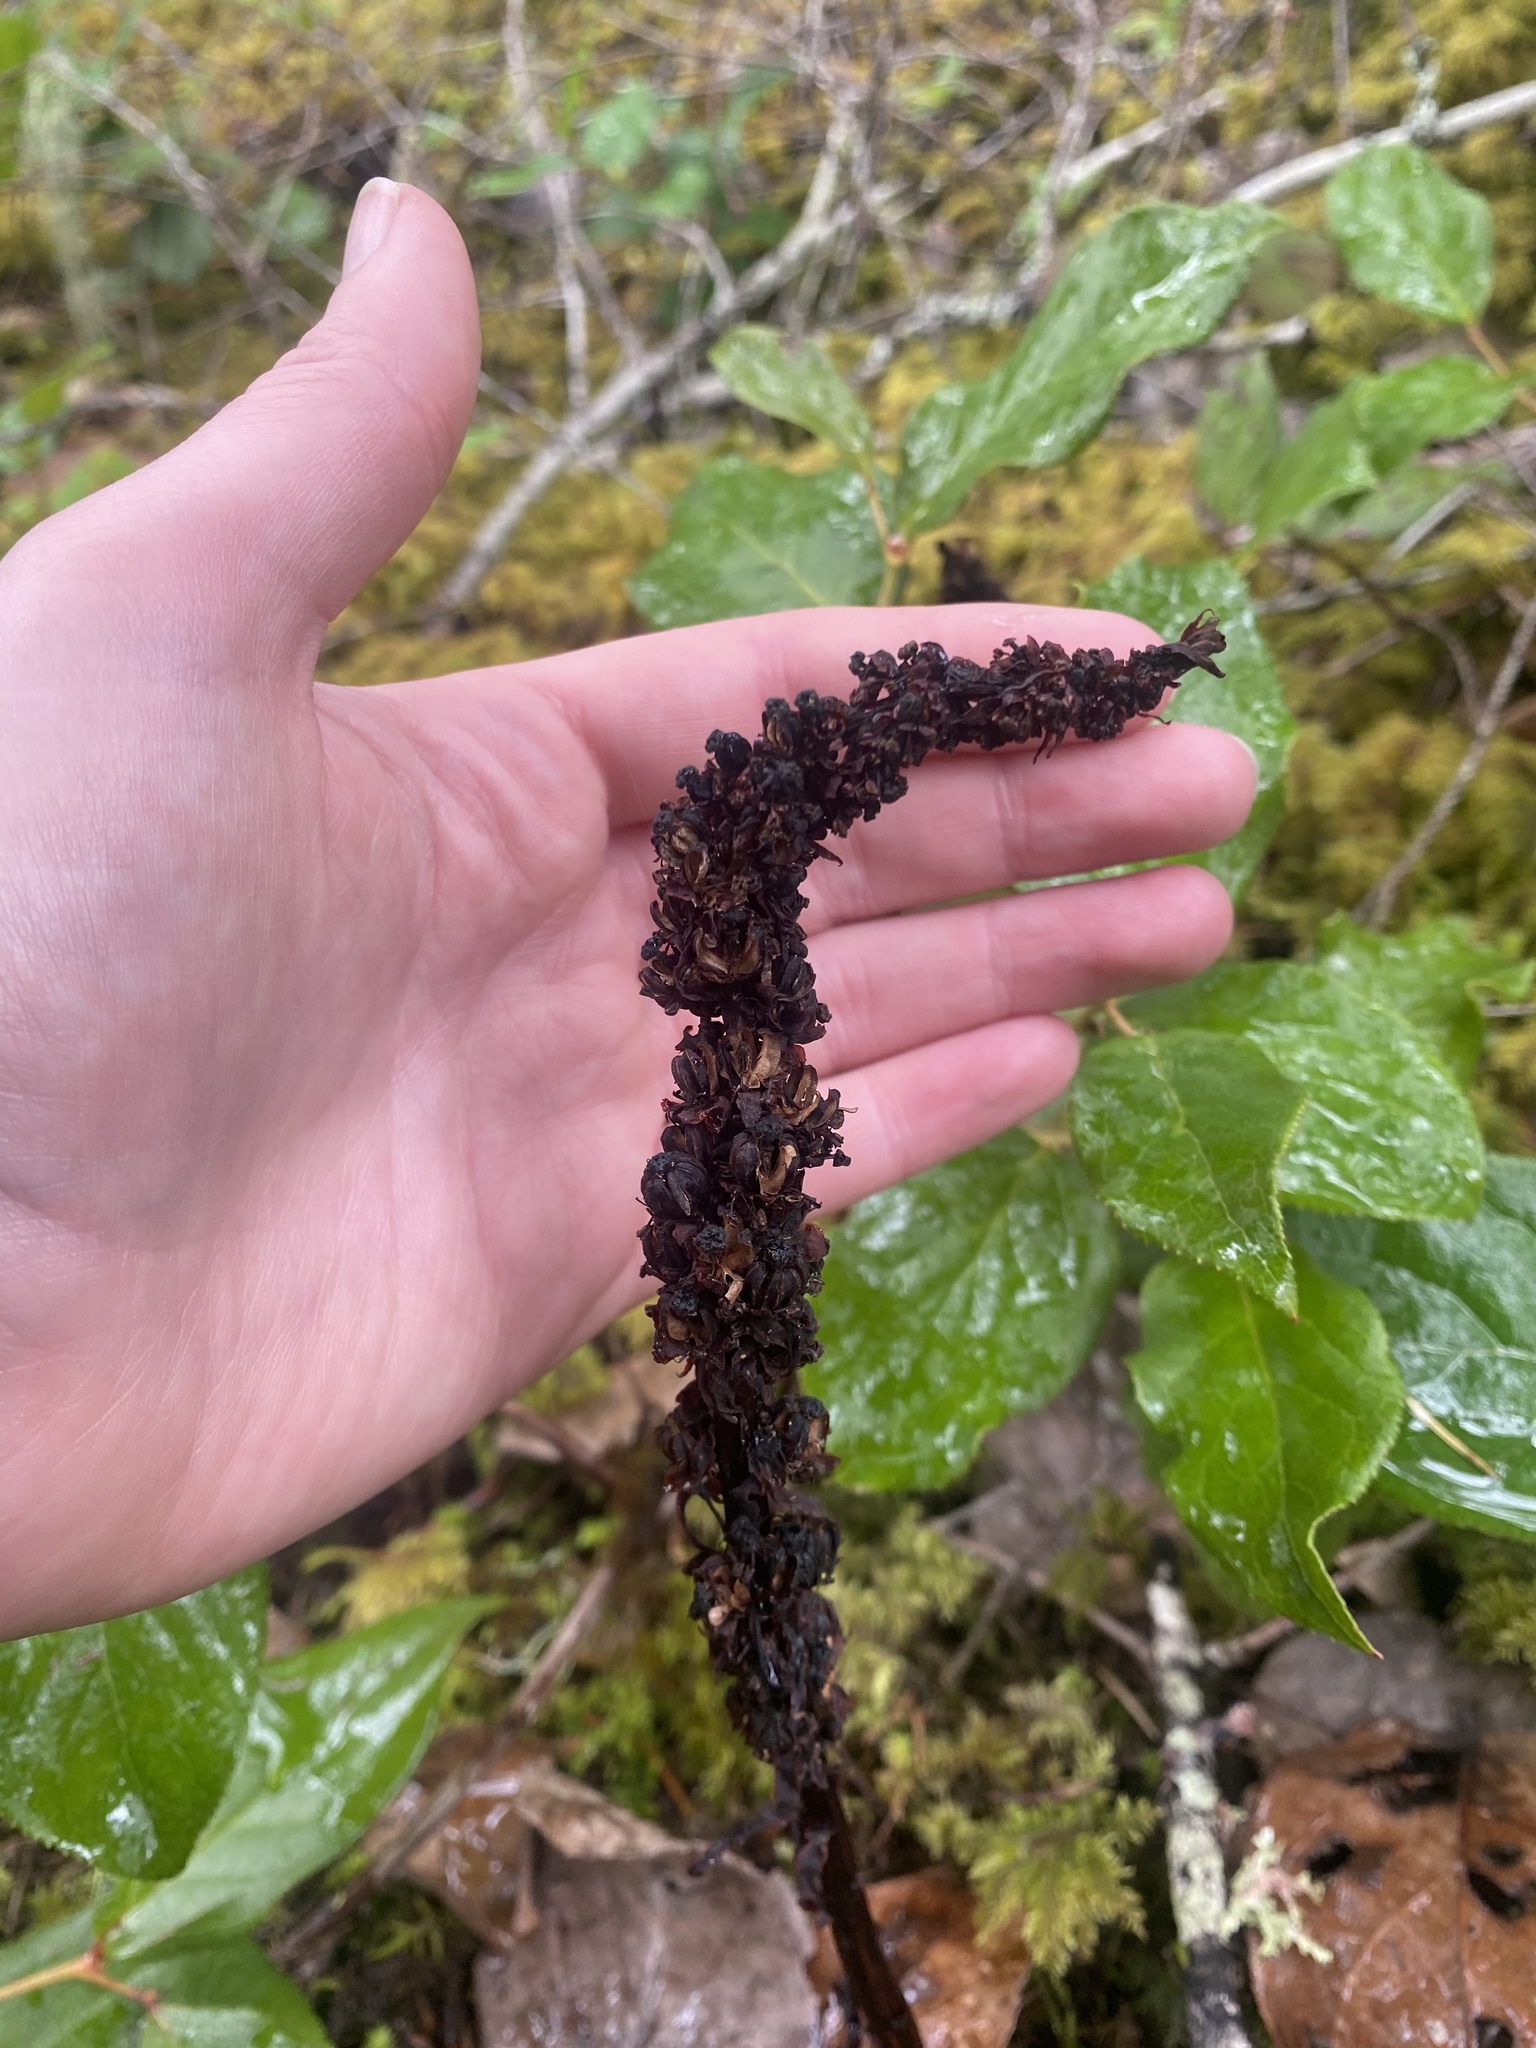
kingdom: Plantae
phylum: Tracheophyta
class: Magnoliopsida
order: Ericales
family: Ericaceae
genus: Allotropa
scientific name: Allotropa virgata
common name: Candy-striped allotropa
